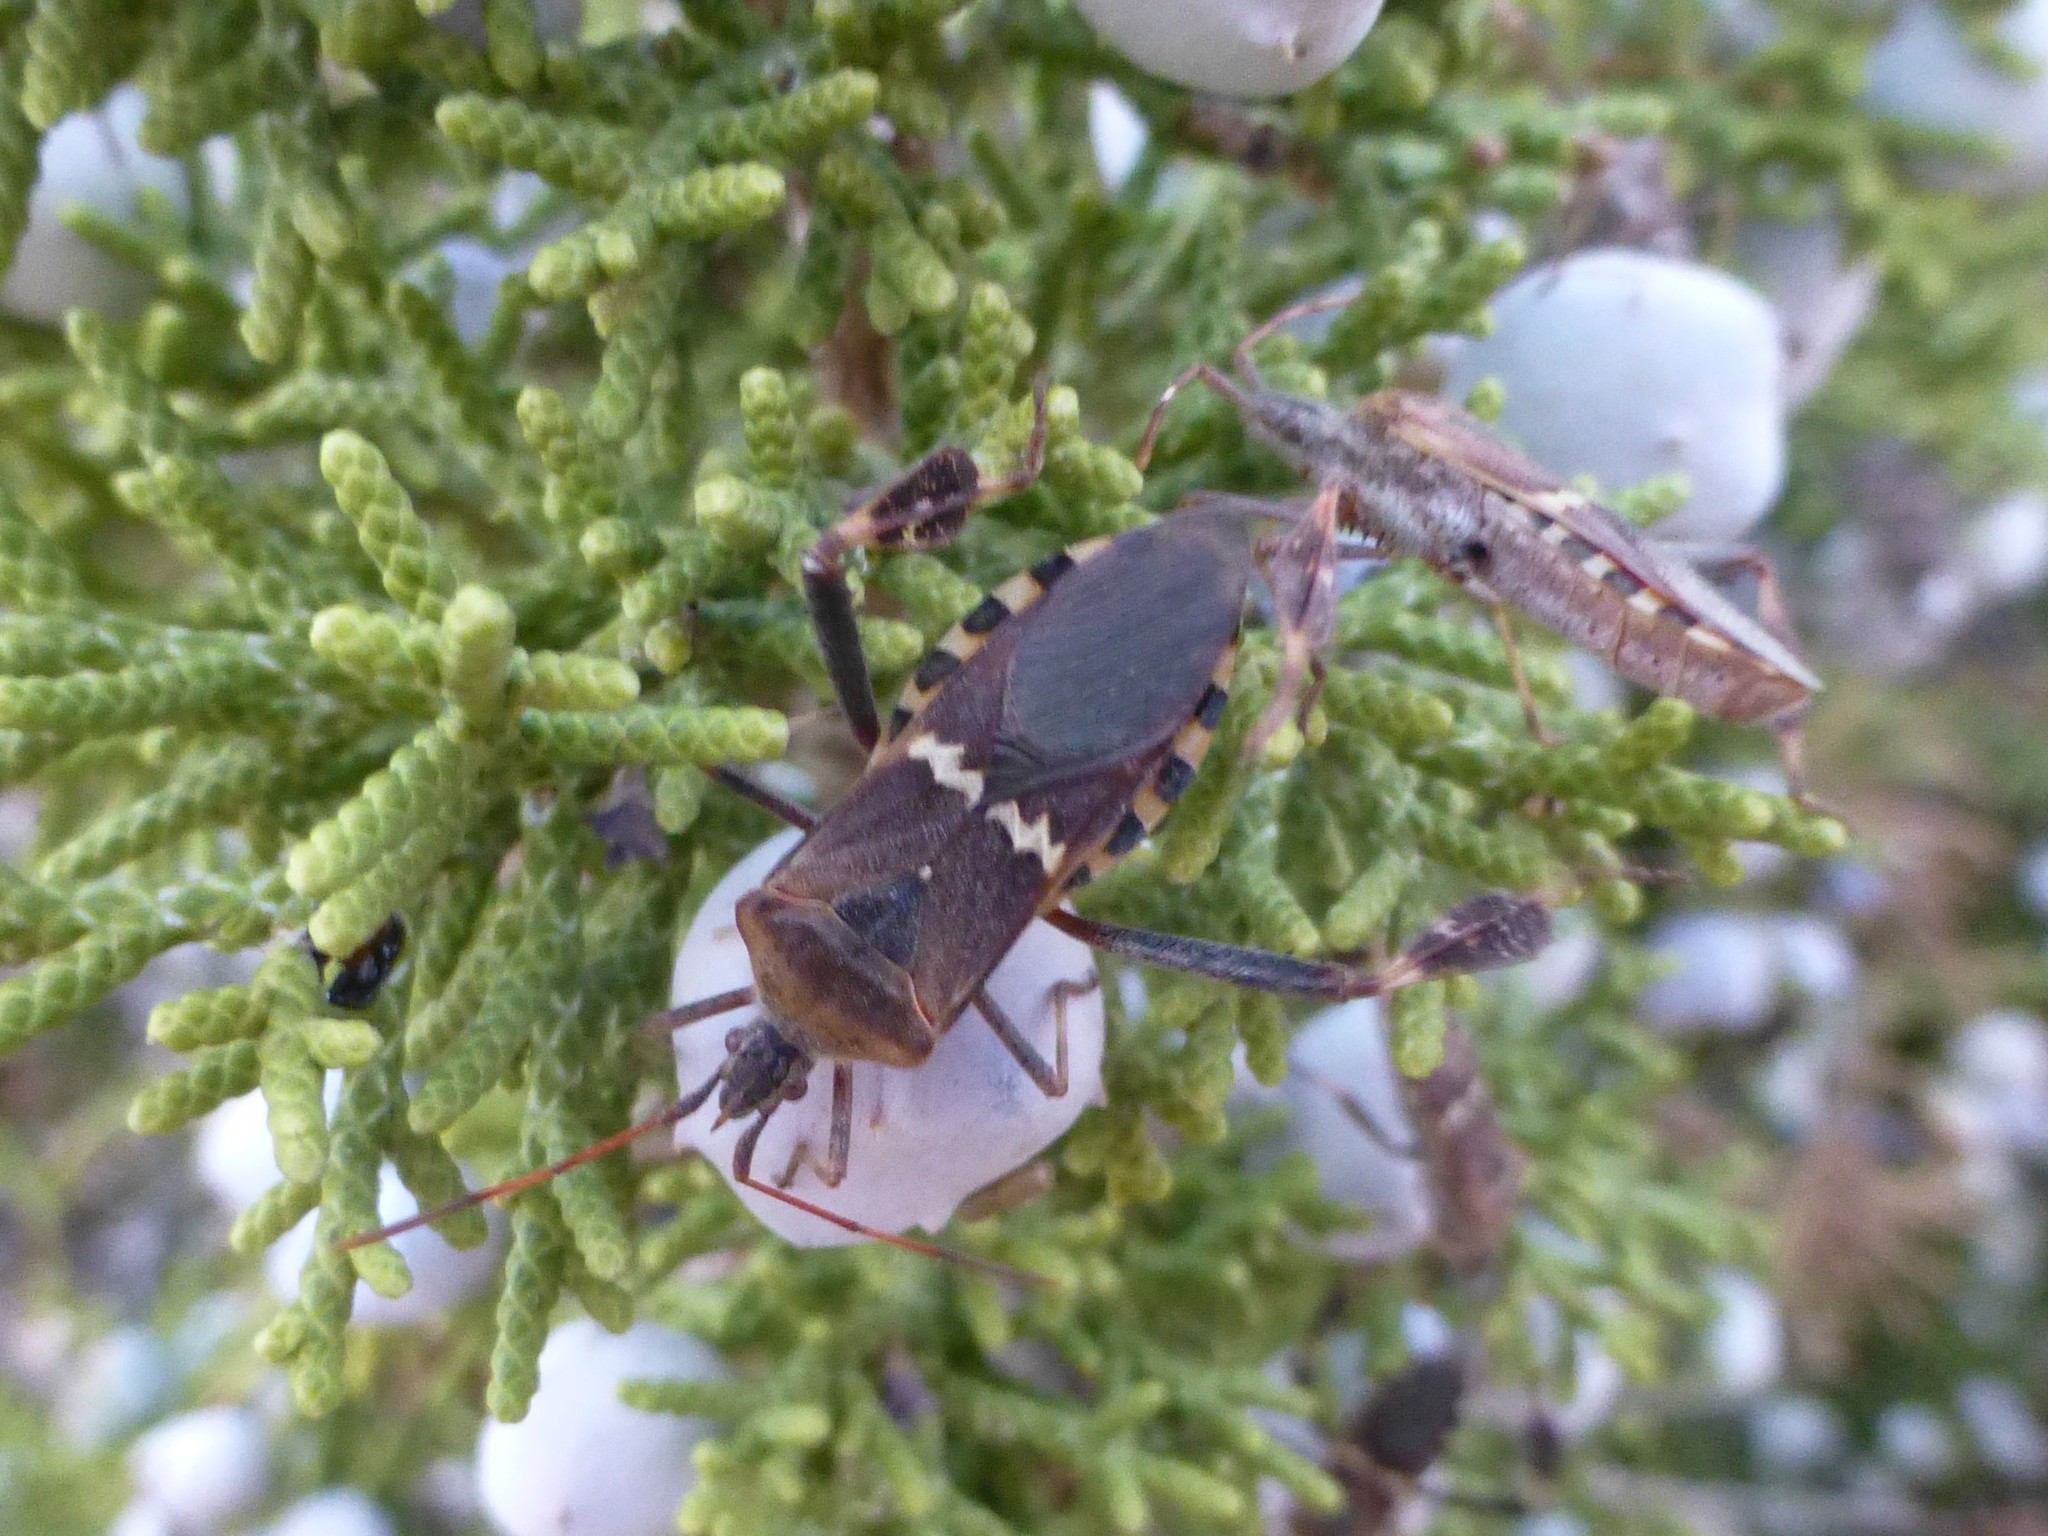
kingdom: Animalia
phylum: Arthropoda
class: Insecta
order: Hemiptera
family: Coreidae
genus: Leptoglossus
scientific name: Leptoglossus clypealis
